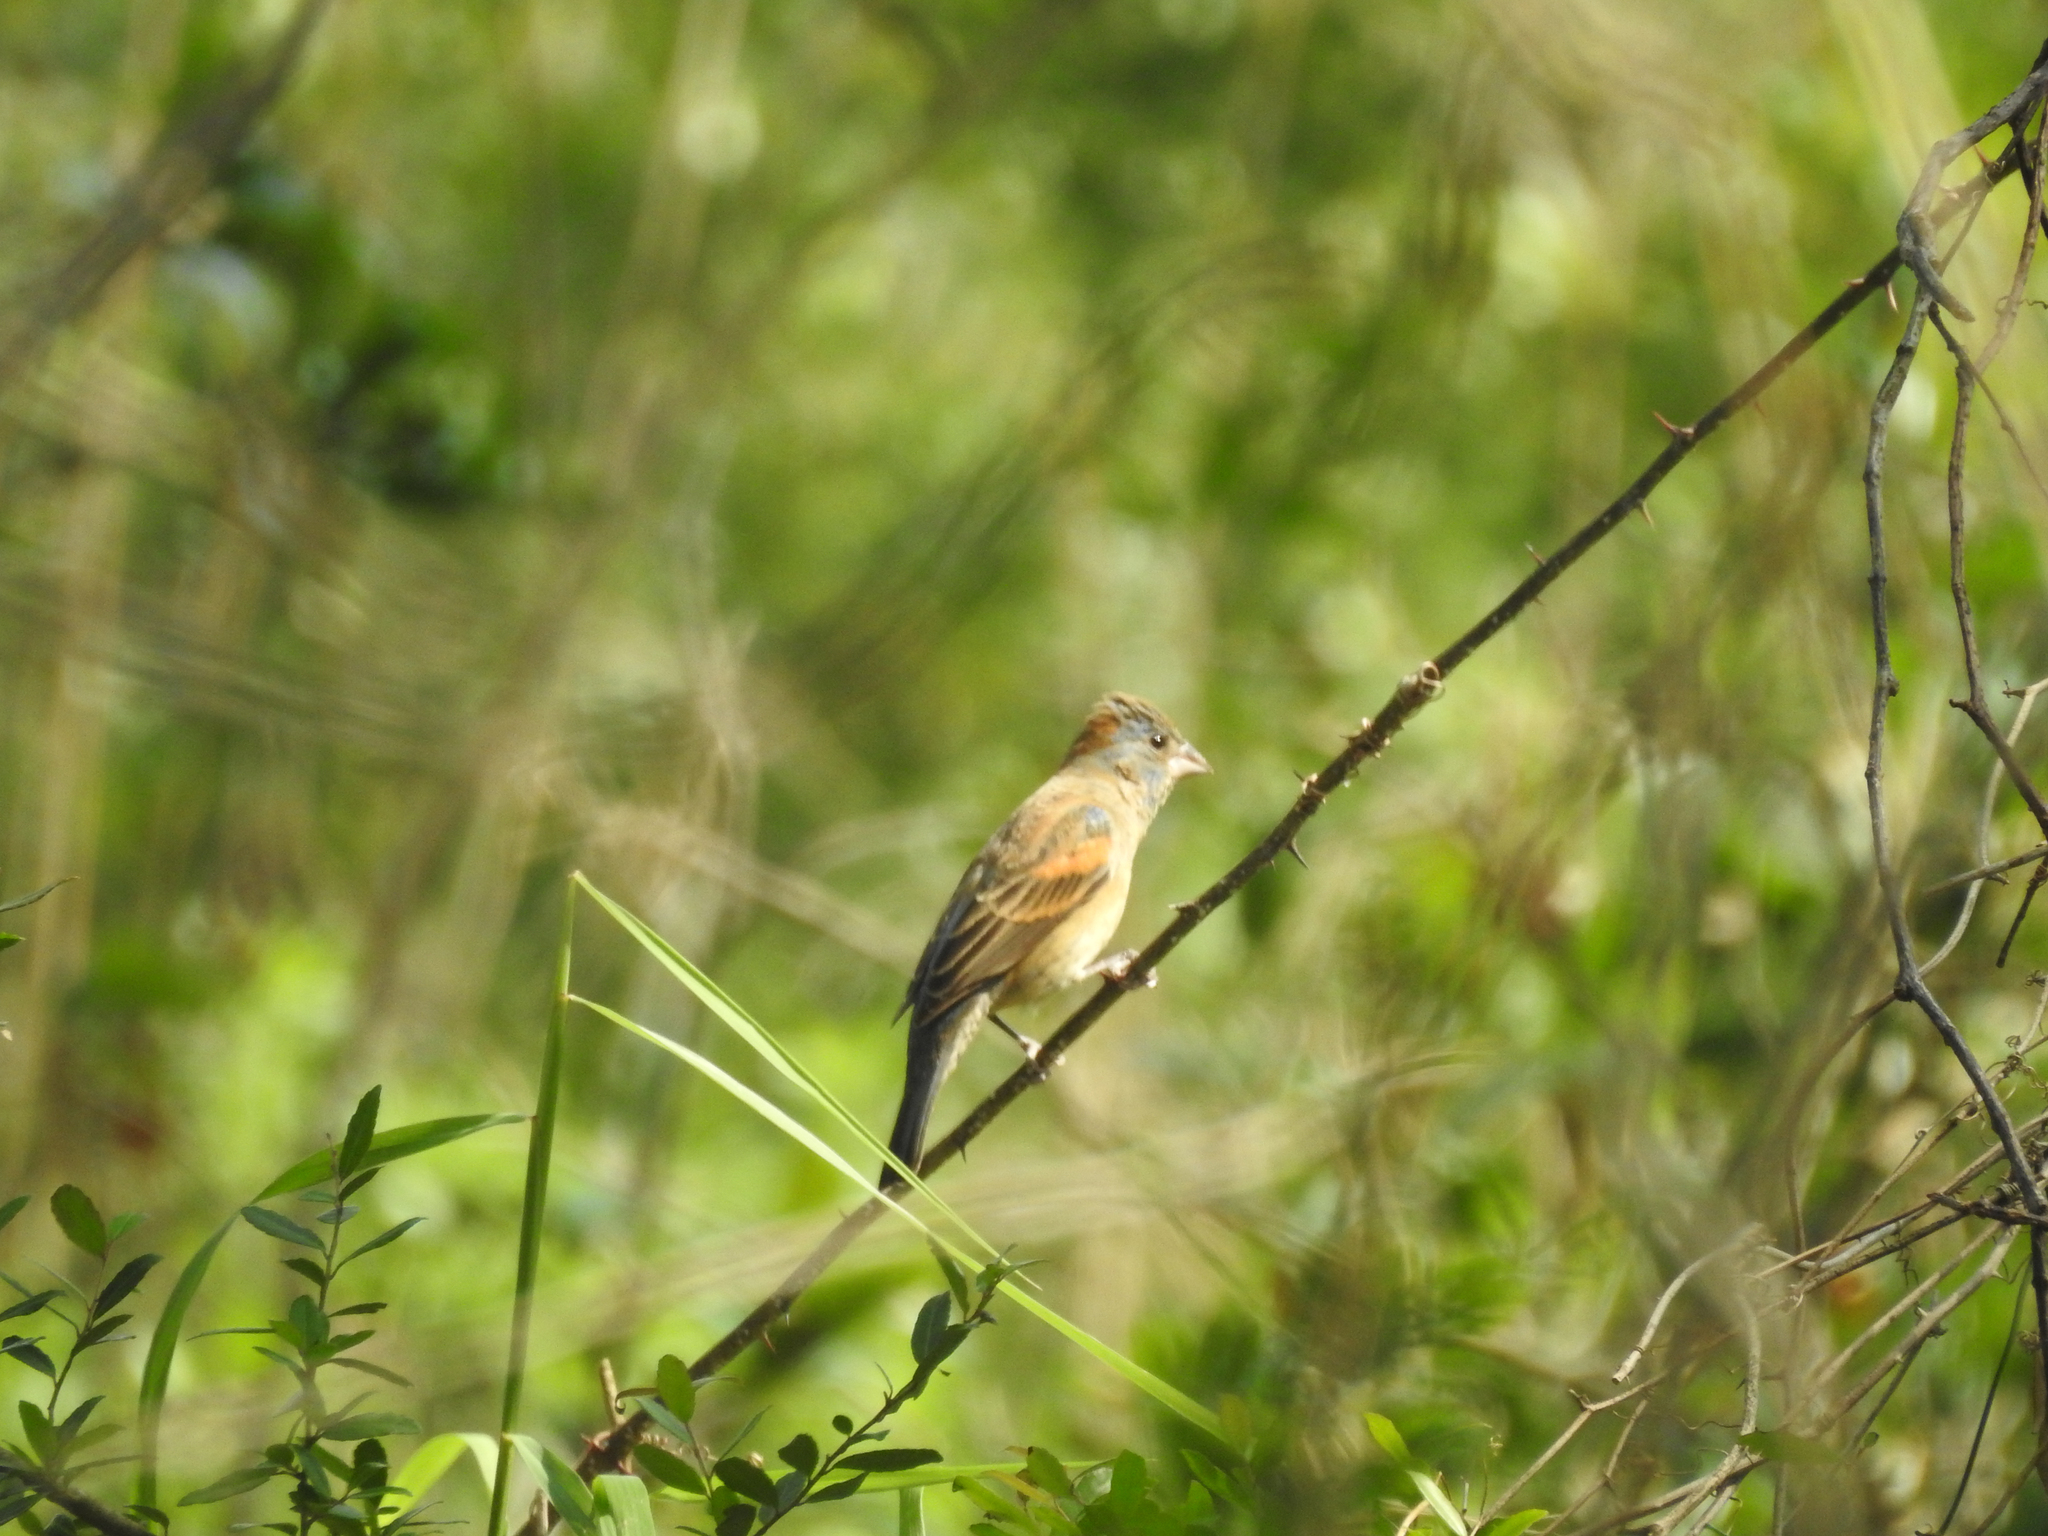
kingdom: Animalia
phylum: Chordata
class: Aves
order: Passeriformes
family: Cardinalidae
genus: Passerina
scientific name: Passerina caerulea
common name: Blue grosbeak
